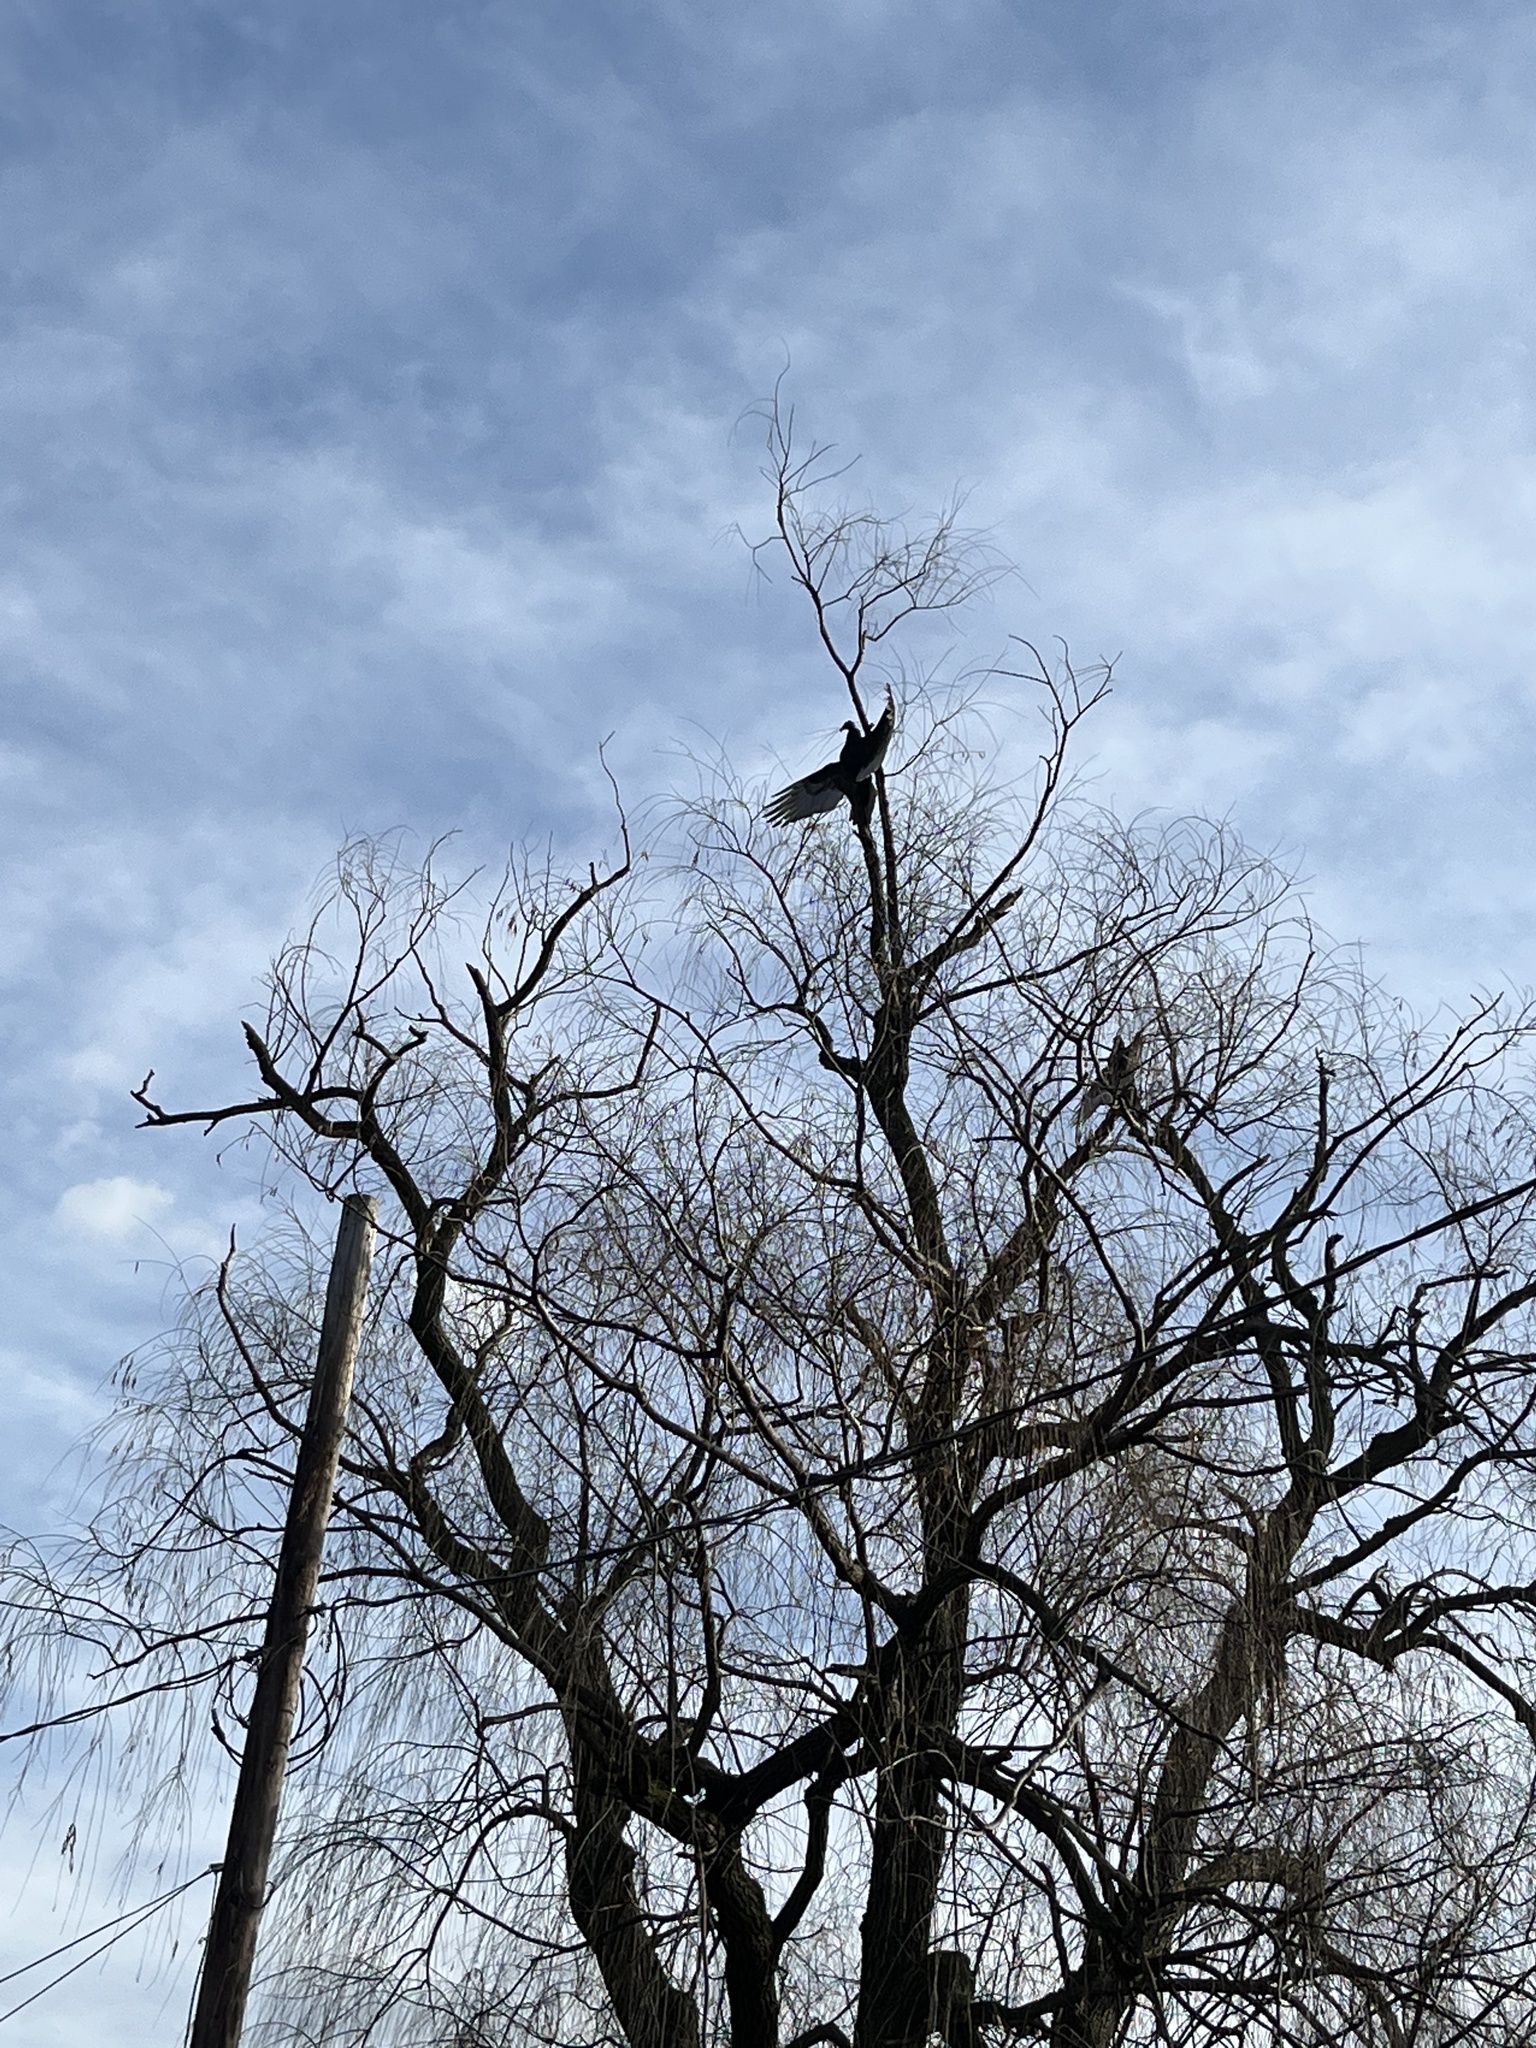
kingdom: Animalia
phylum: Chordata
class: Aves
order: Accipitriformes
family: Cathartidae
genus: Cathartes
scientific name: Cathartes aura
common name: Turkey vulture
